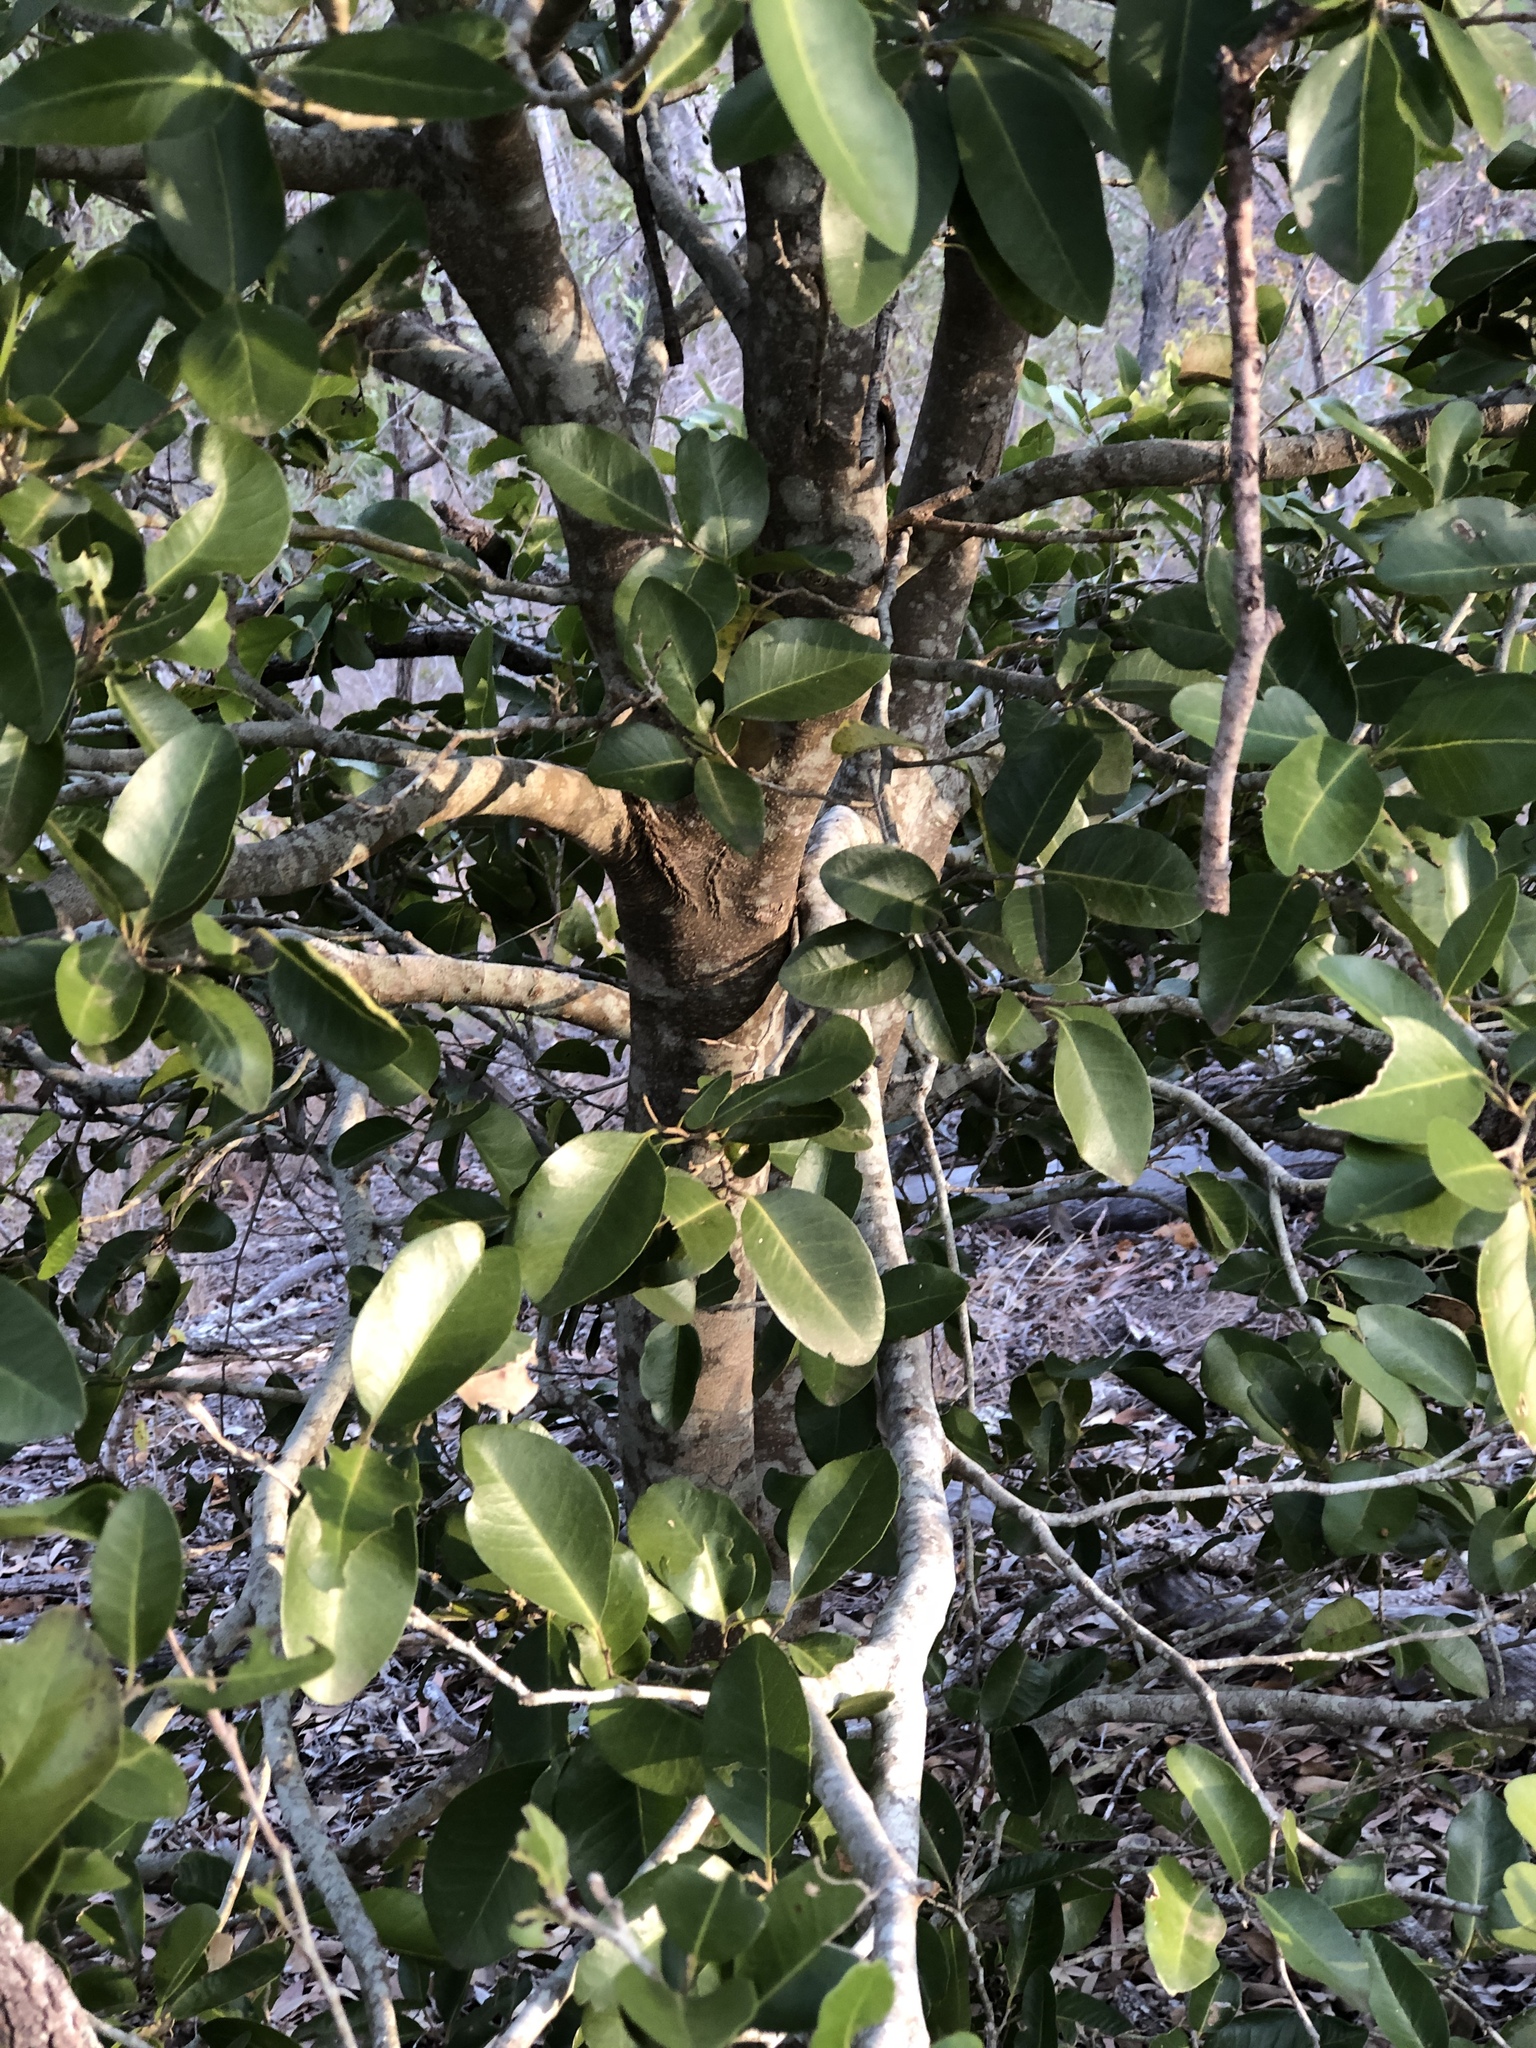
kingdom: Plantae
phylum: Tracheophyta
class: Magnoliopsida
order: Malpighiales
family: Putranjivaceae
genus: Drypetes
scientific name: Drypetes deplanchei
